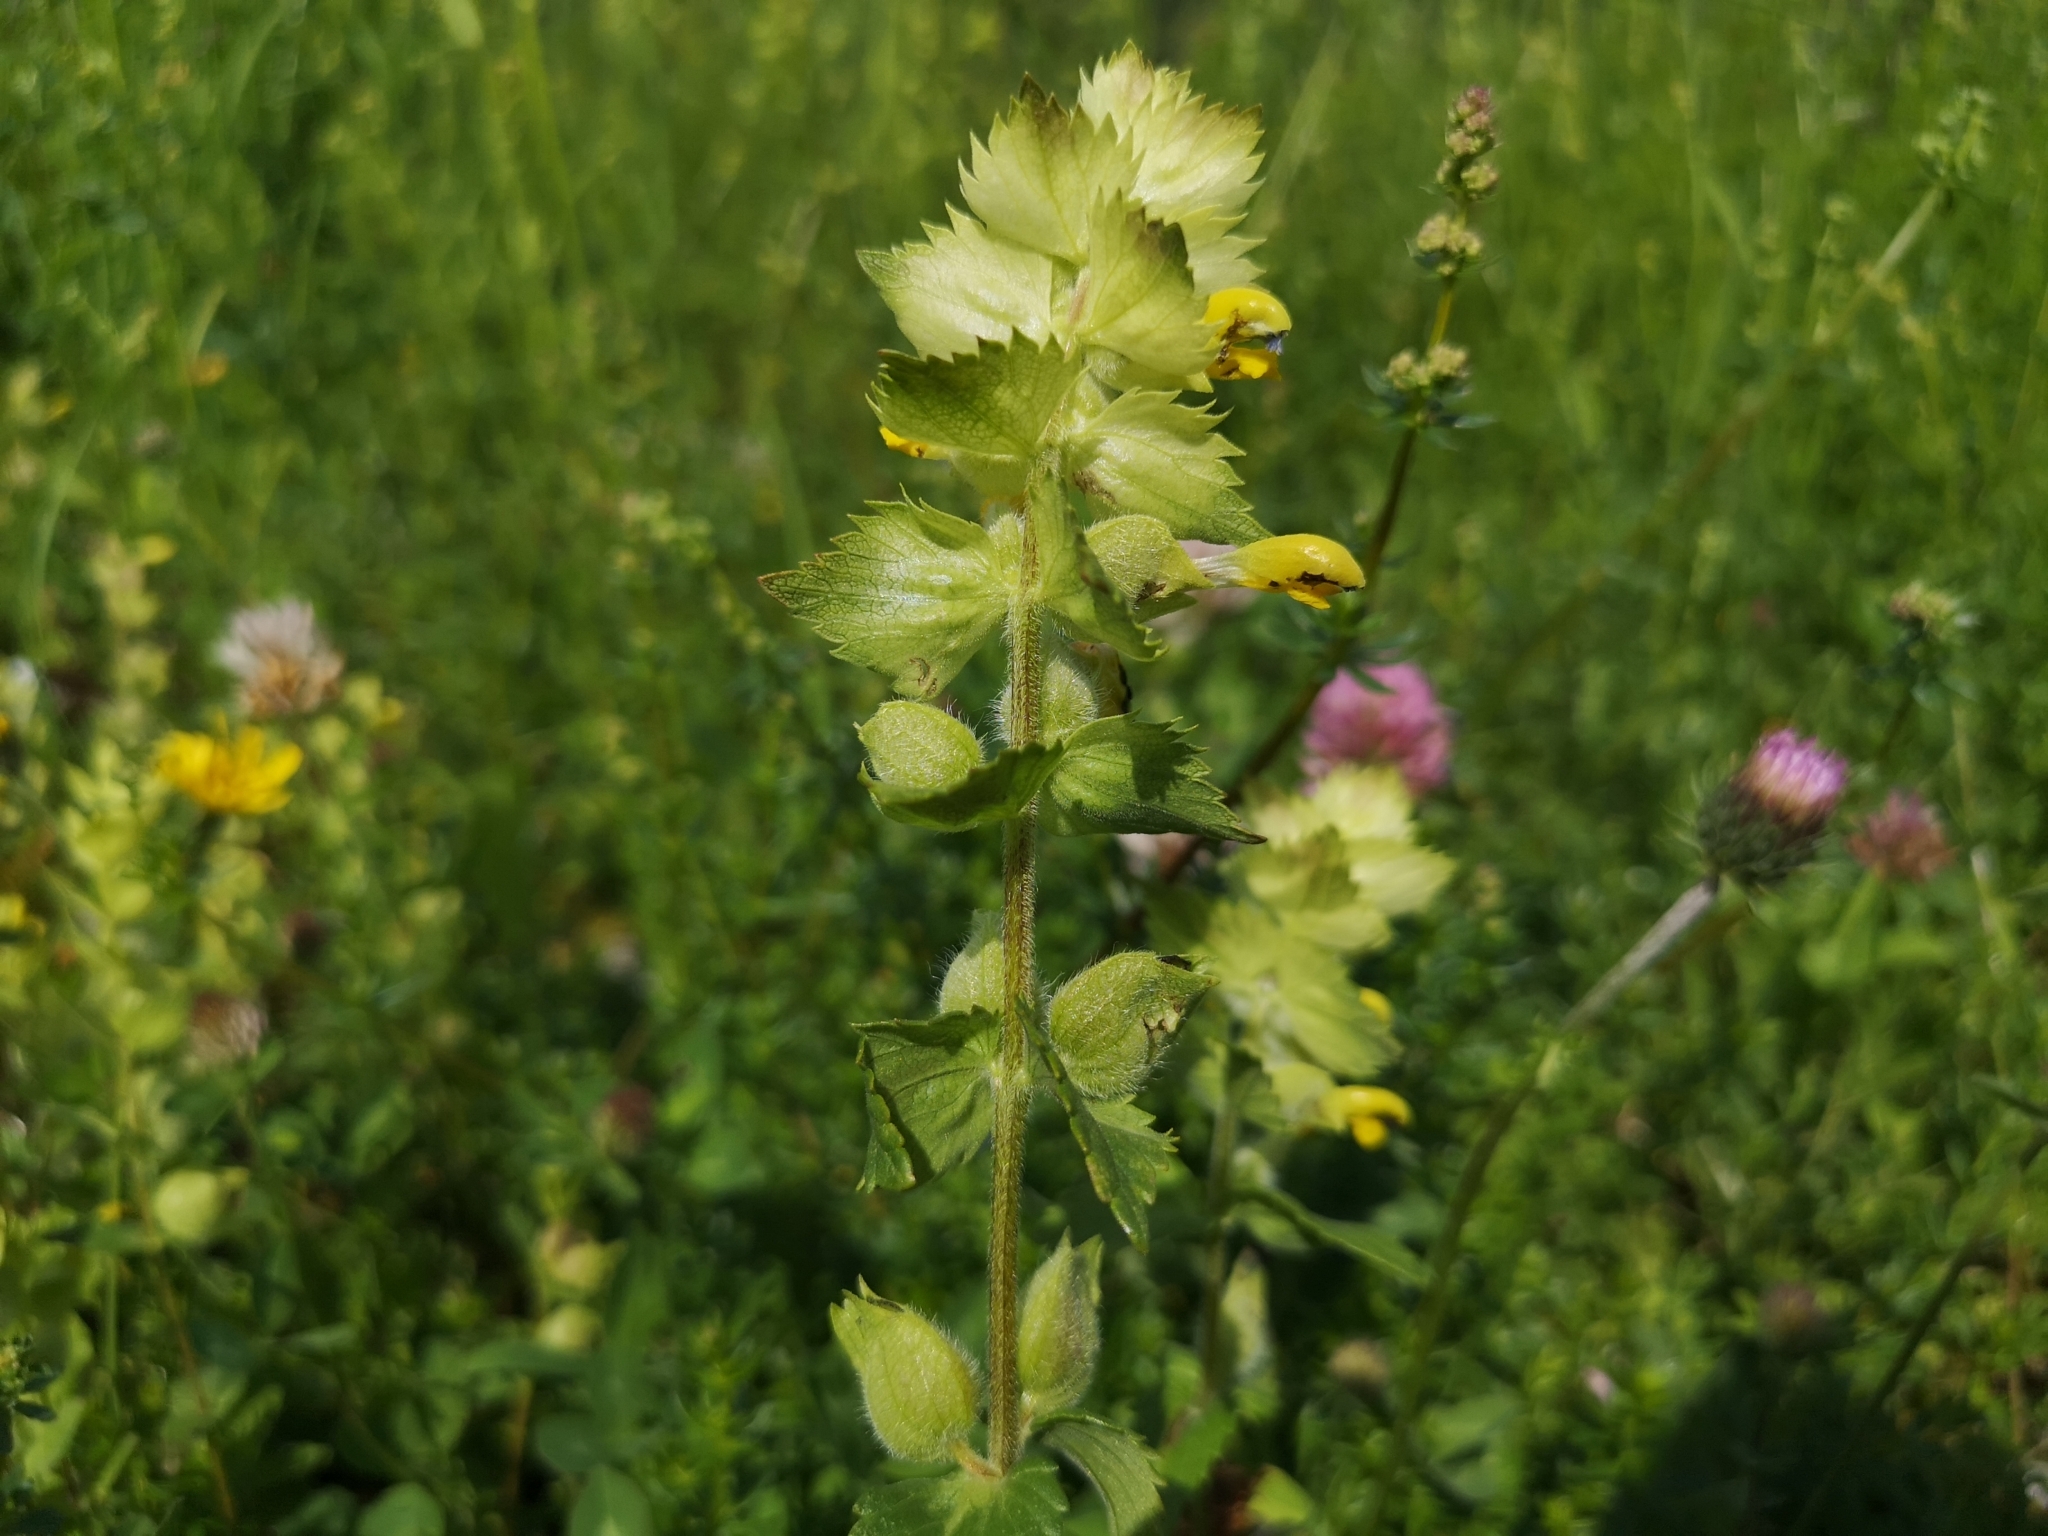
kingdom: Plantae
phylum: Tracheophyta
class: Magnoliopsida
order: Lamiales
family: Orobanchaceae
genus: Rhinanthus
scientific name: Rhinanthus alectorolophus
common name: Greater yellow-rattle
